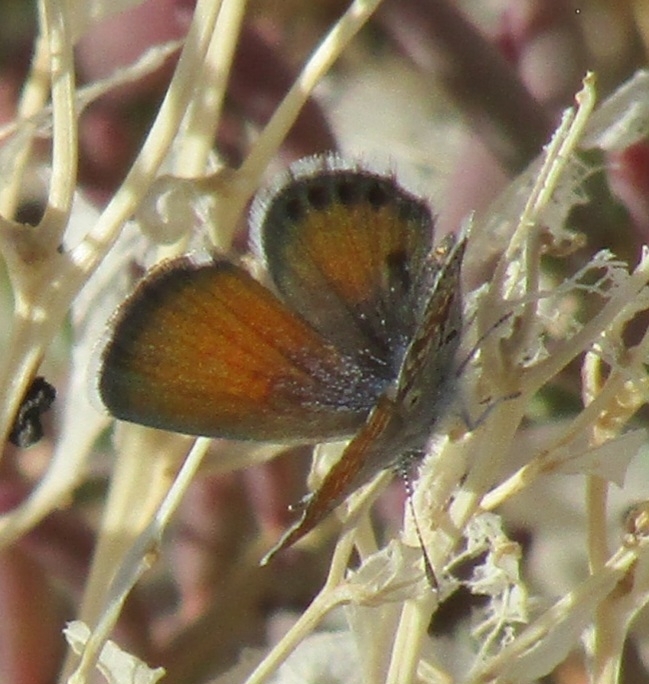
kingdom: Animalia
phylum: Arthropoda
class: Insecta
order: Lepidoptera
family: Lycaenidae
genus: Brephidium
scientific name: Brephidium exilis
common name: Pygmy blue
